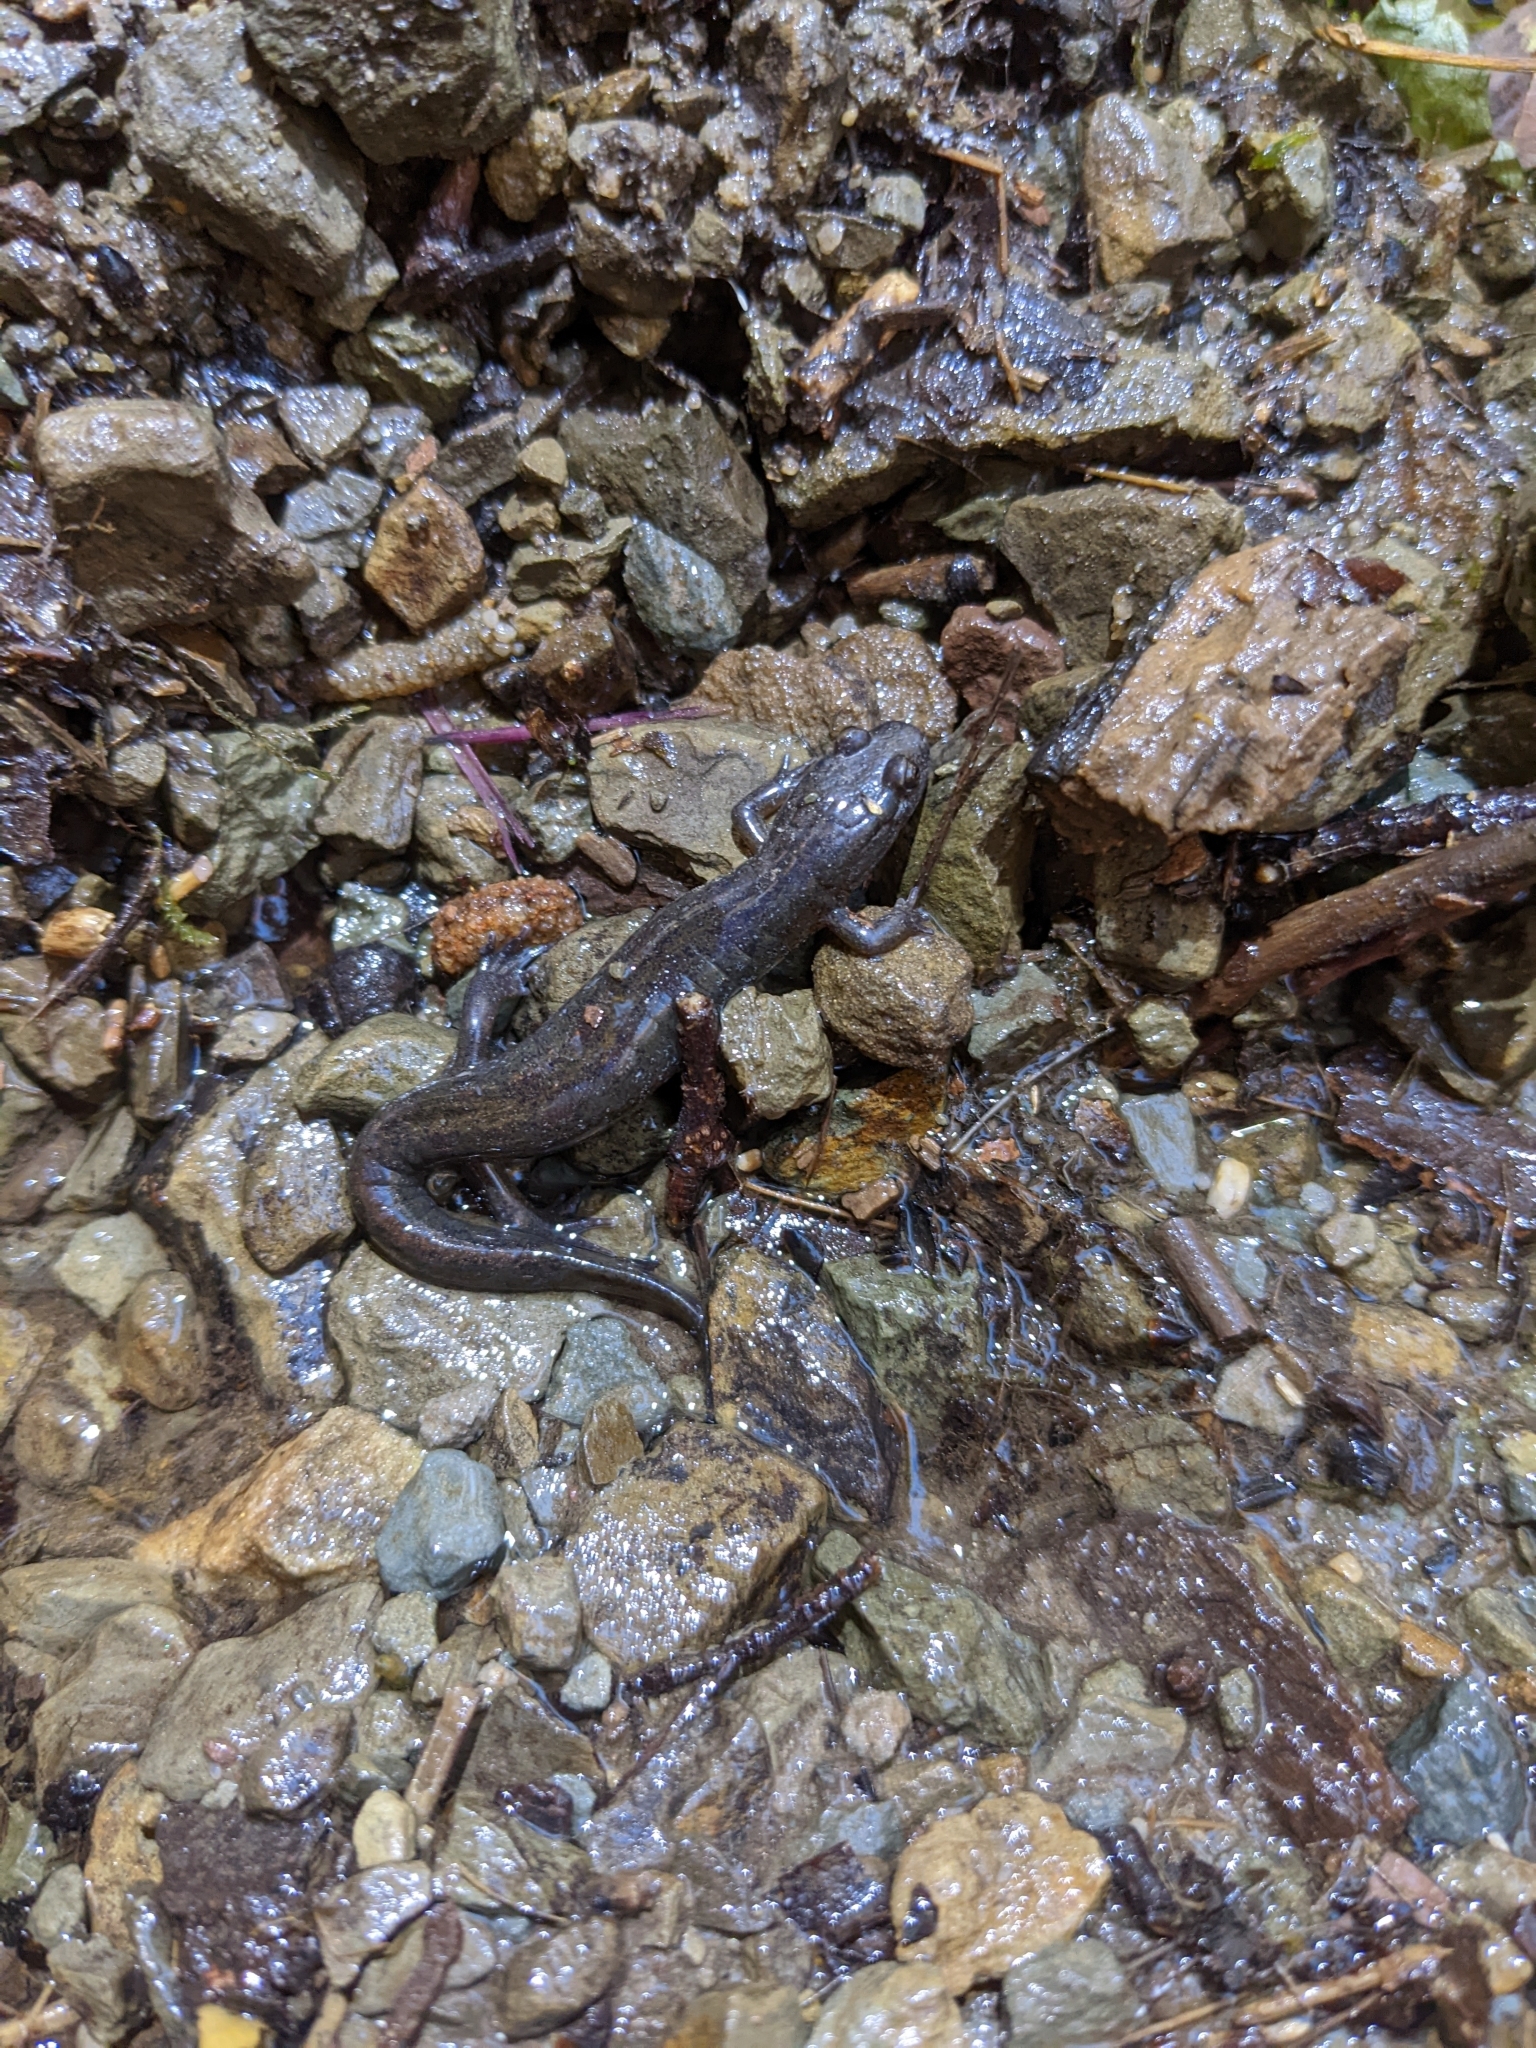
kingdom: Animalia
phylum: Chordata
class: Amphibia
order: Caudata
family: Plethodontidae
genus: Desmognathus
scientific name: Desmognathus fuscus
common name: Northern dusky salamander
